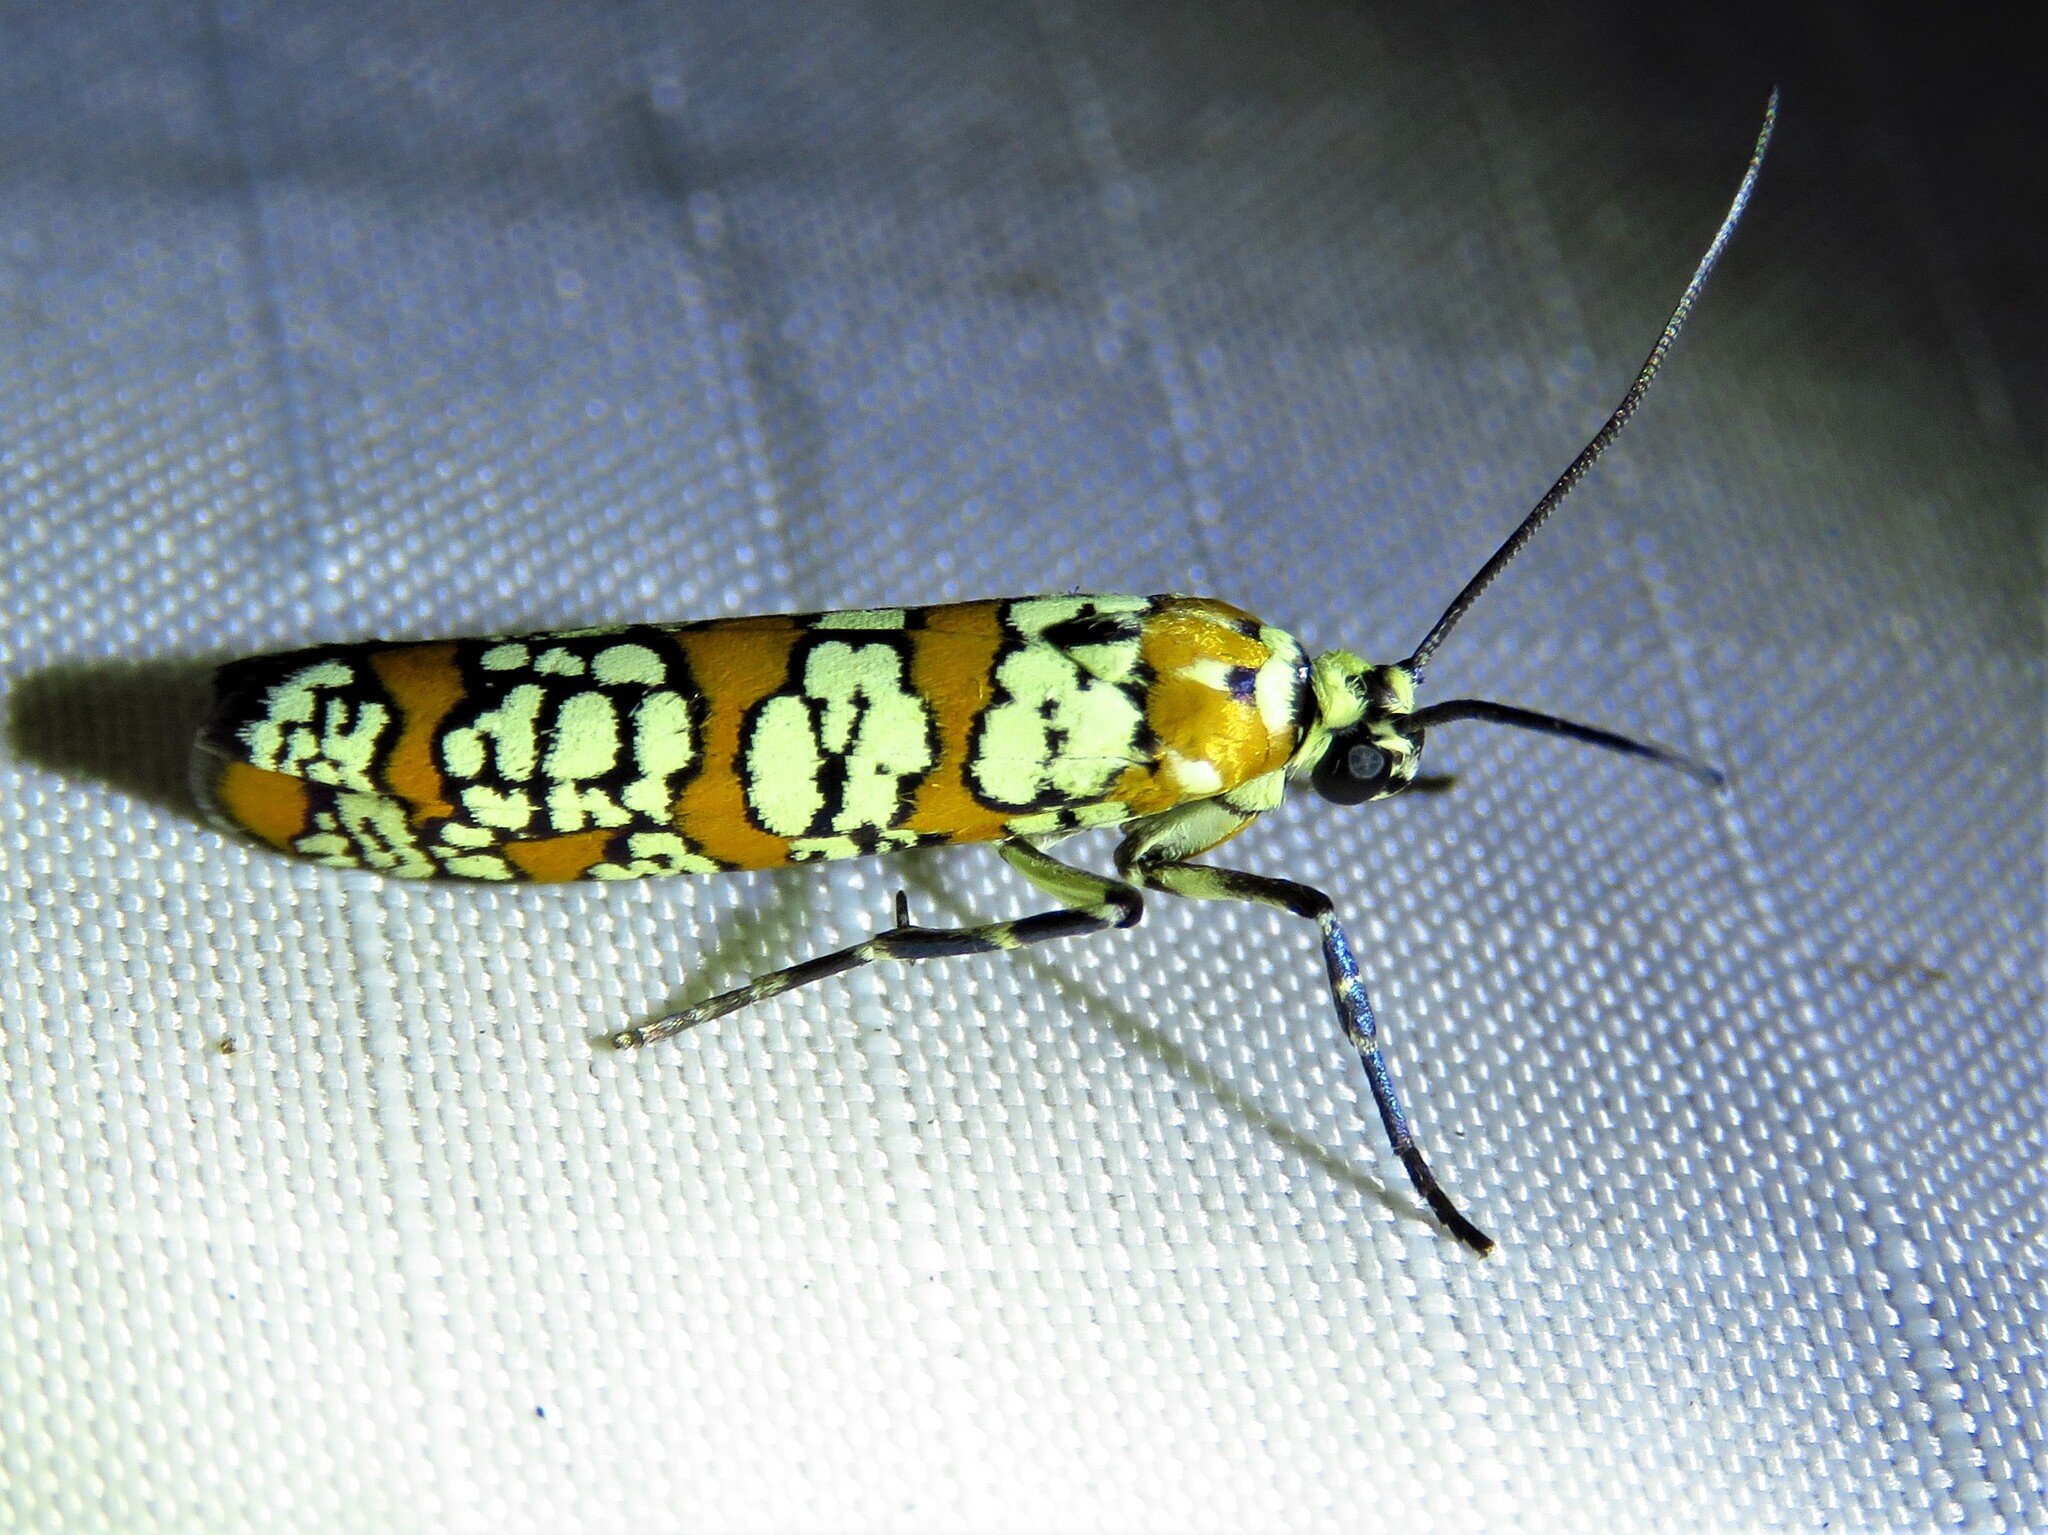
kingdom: Animalia
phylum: Arthropoda
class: Insecta
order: Lepidoptera
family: Attevidae
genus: Atteva
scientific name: Atteva punctella
